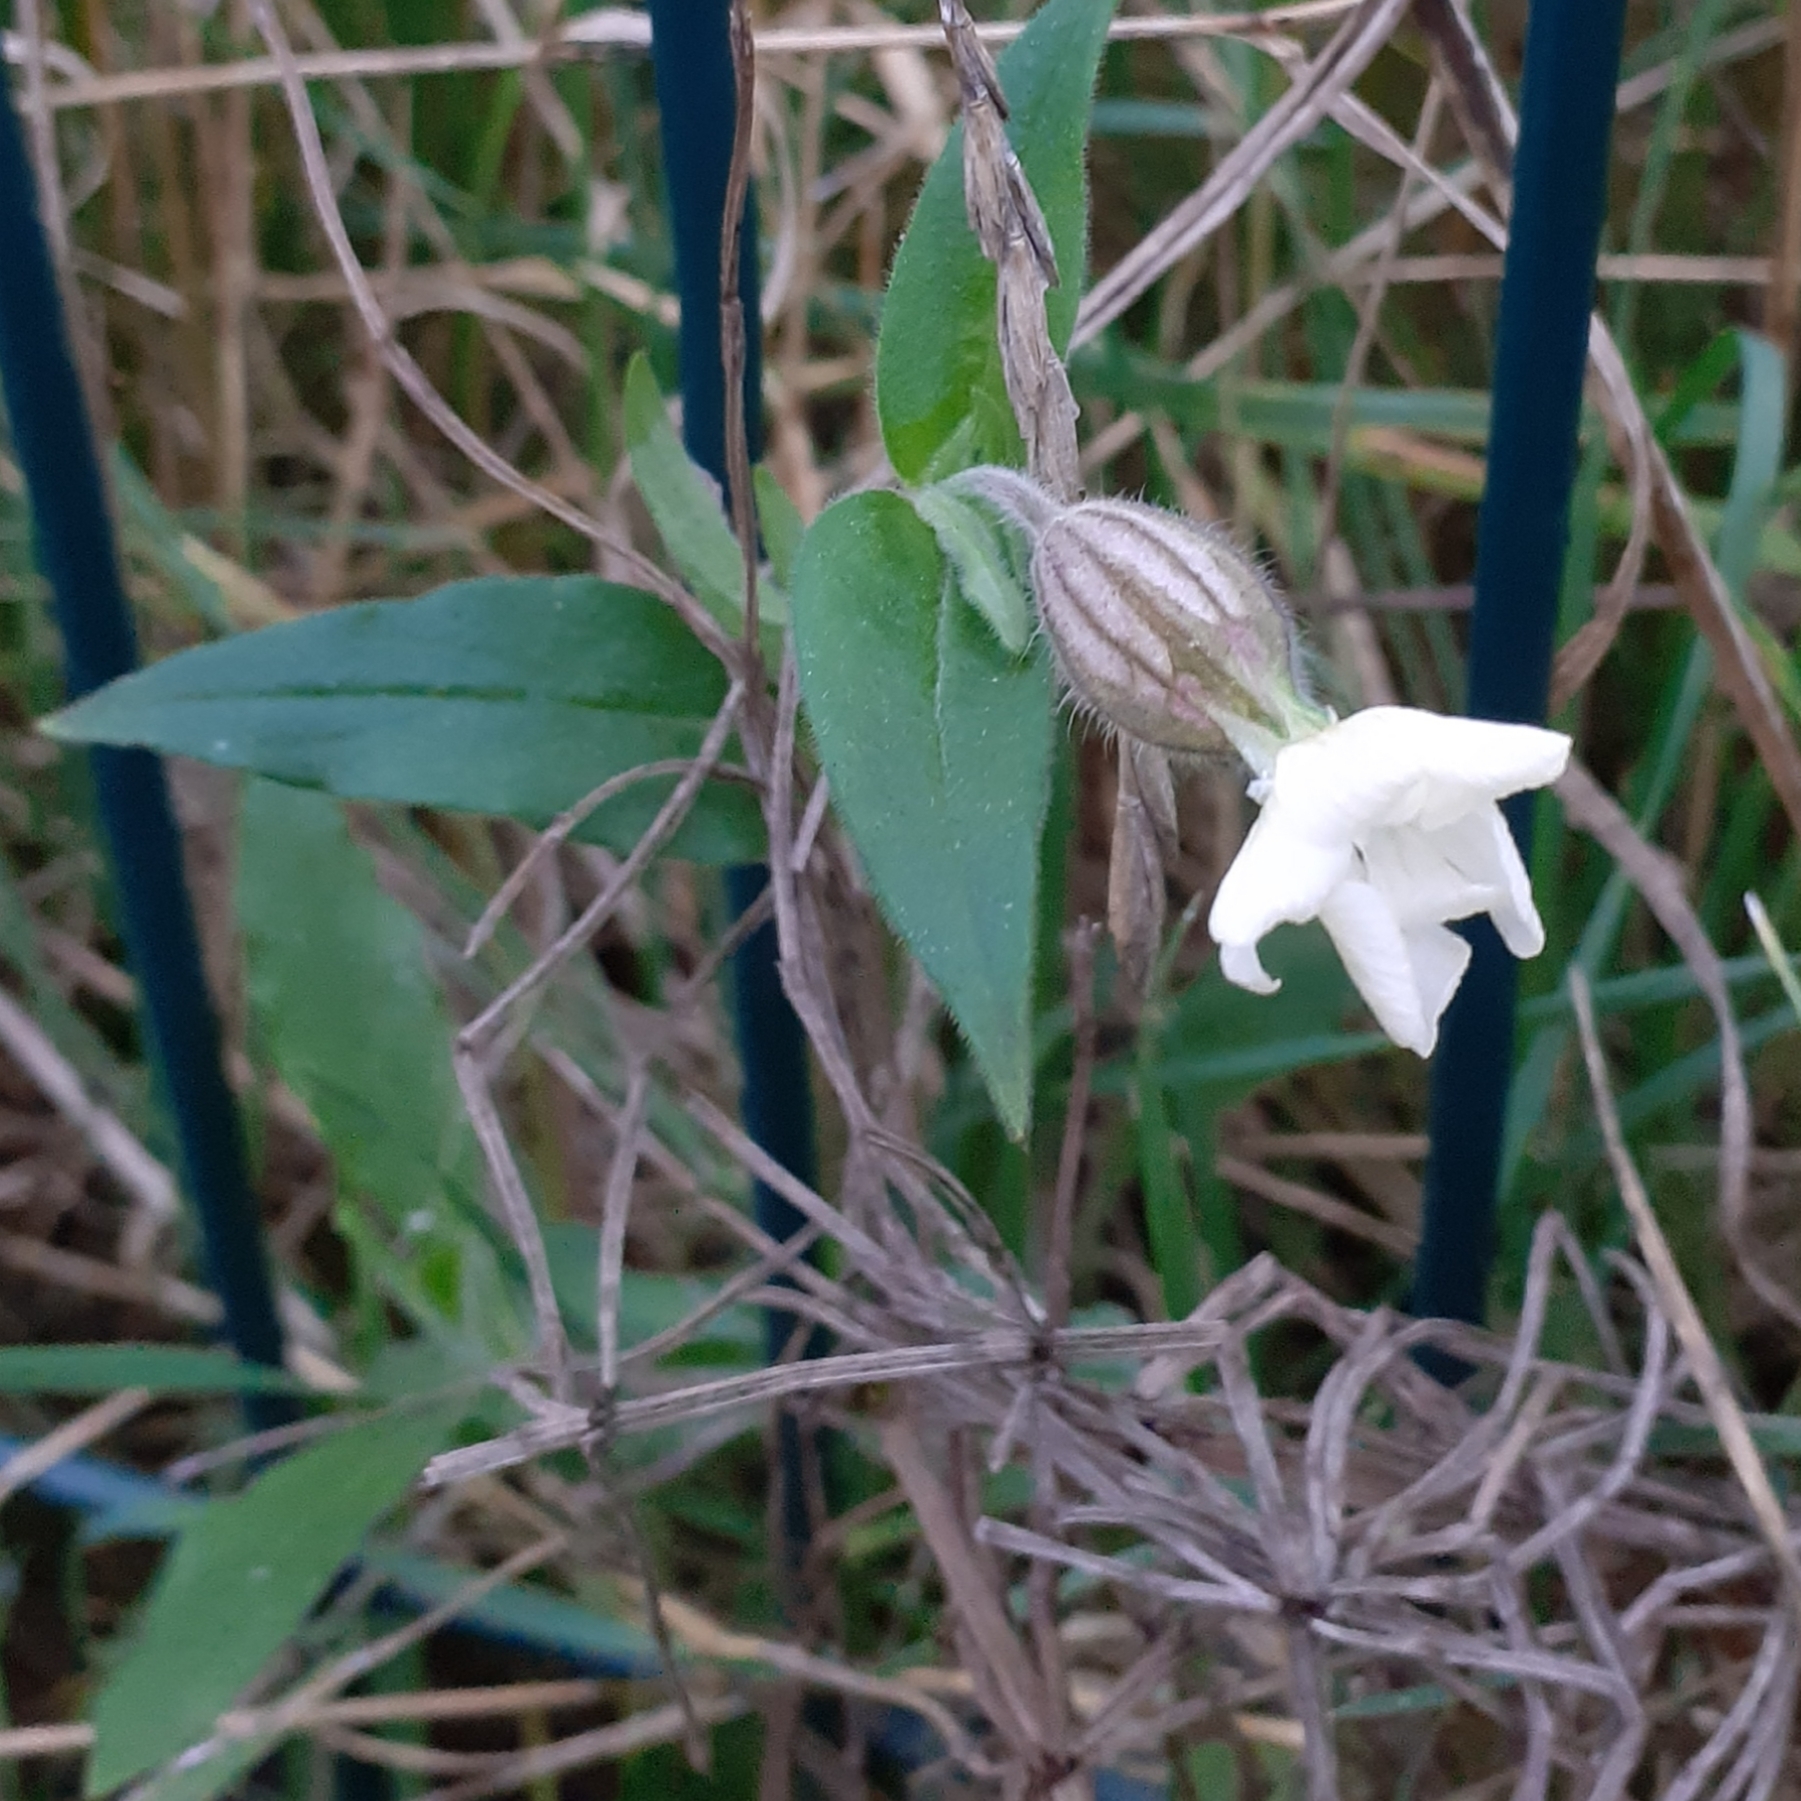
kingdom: Plantae
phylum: Tracheophyta
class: Magnoliopsida
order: Caryophyllales
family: Caryophyllaceae
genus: Silene
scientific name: Silene latifolia
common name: White campion
